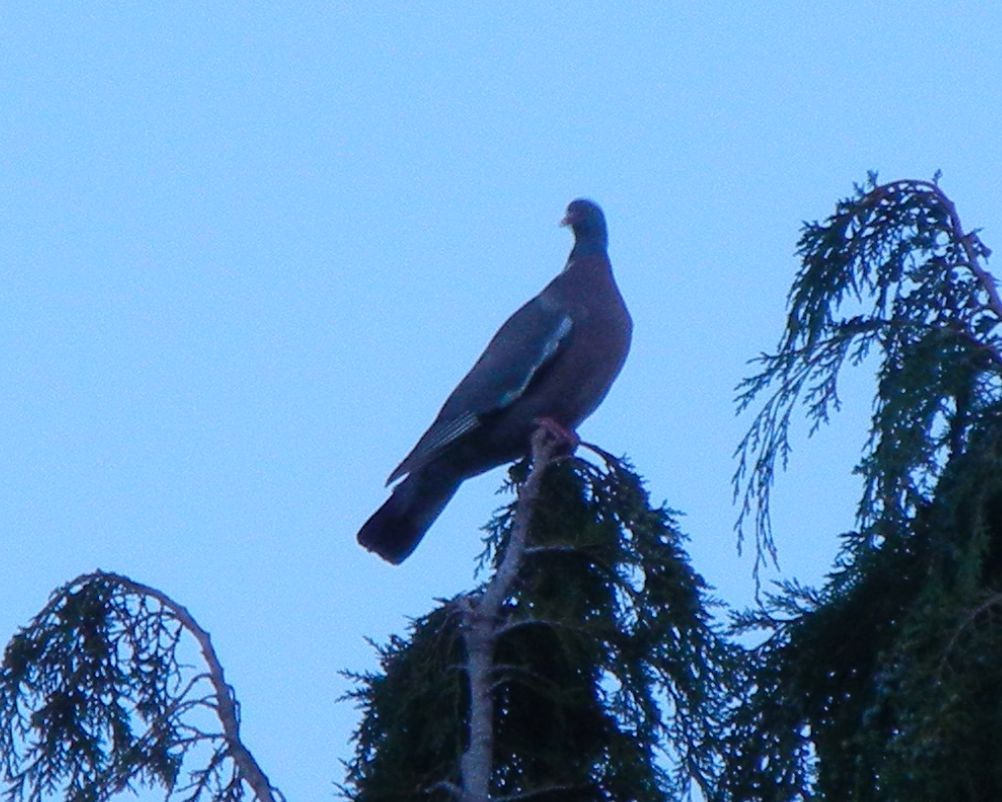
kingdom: Animalia
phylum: Chordata
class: Aves
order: Columbiformes
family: Columbidae
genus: Columba
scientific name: Columba palumbus
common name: Common wood pigeon
